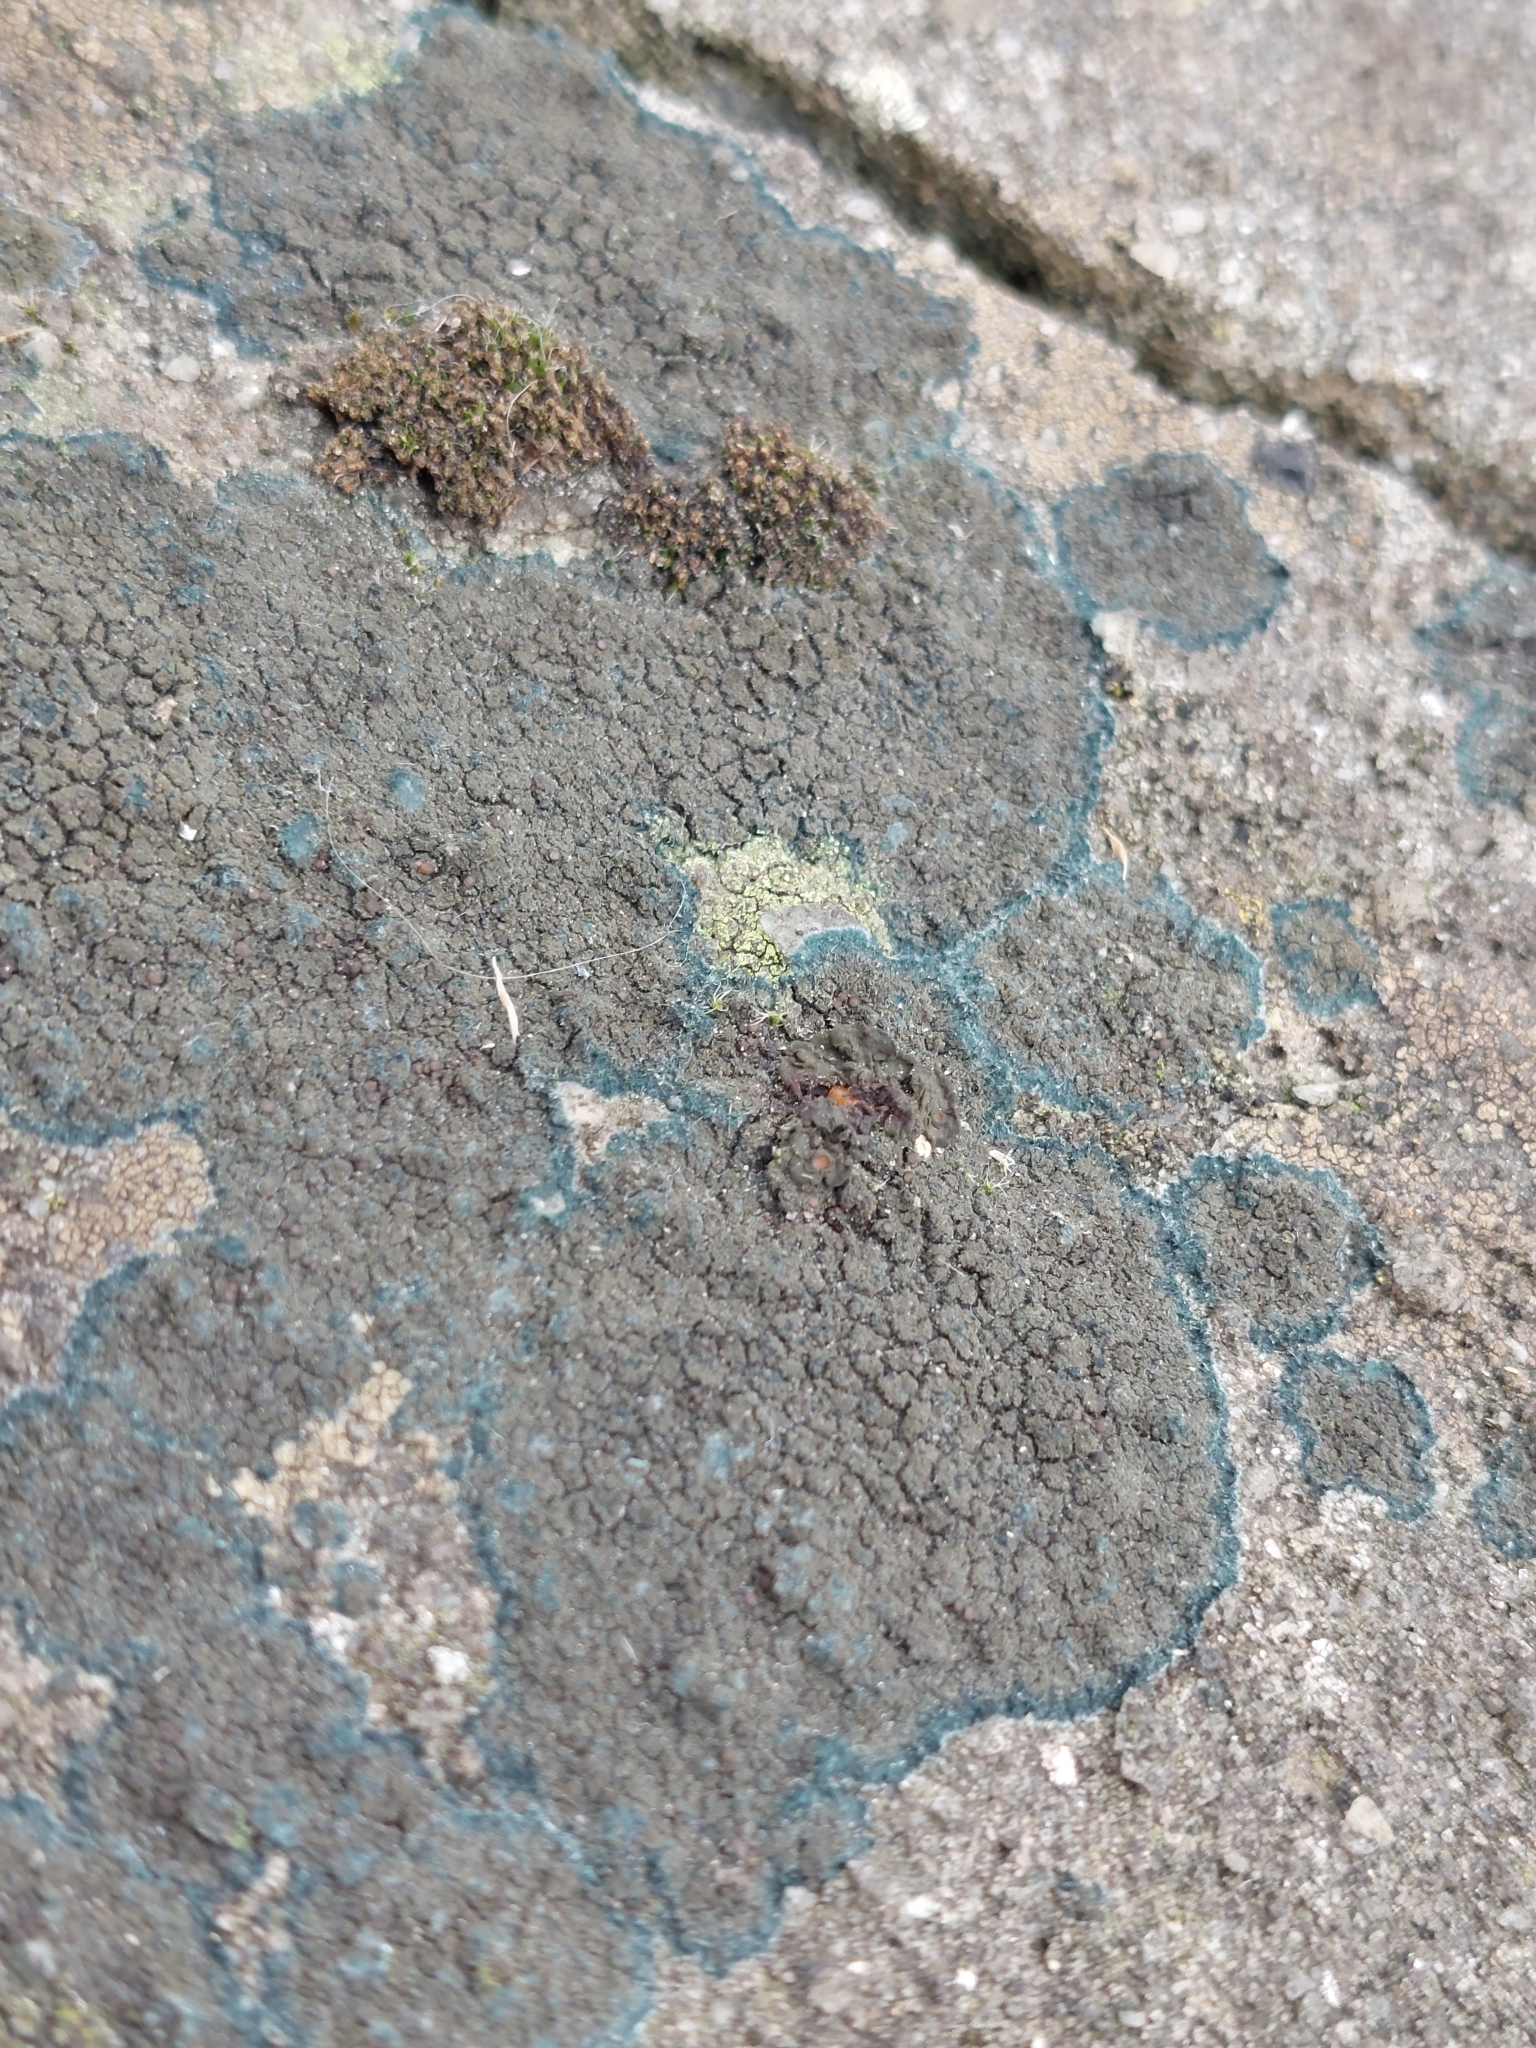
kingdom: Fungi
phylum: Ascomycota
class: Lecanoromycetes
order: Peltigerales
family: Placynthiaceae
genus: Placynthium
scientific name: Placynthium nigrum
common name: Blackthread lichen
